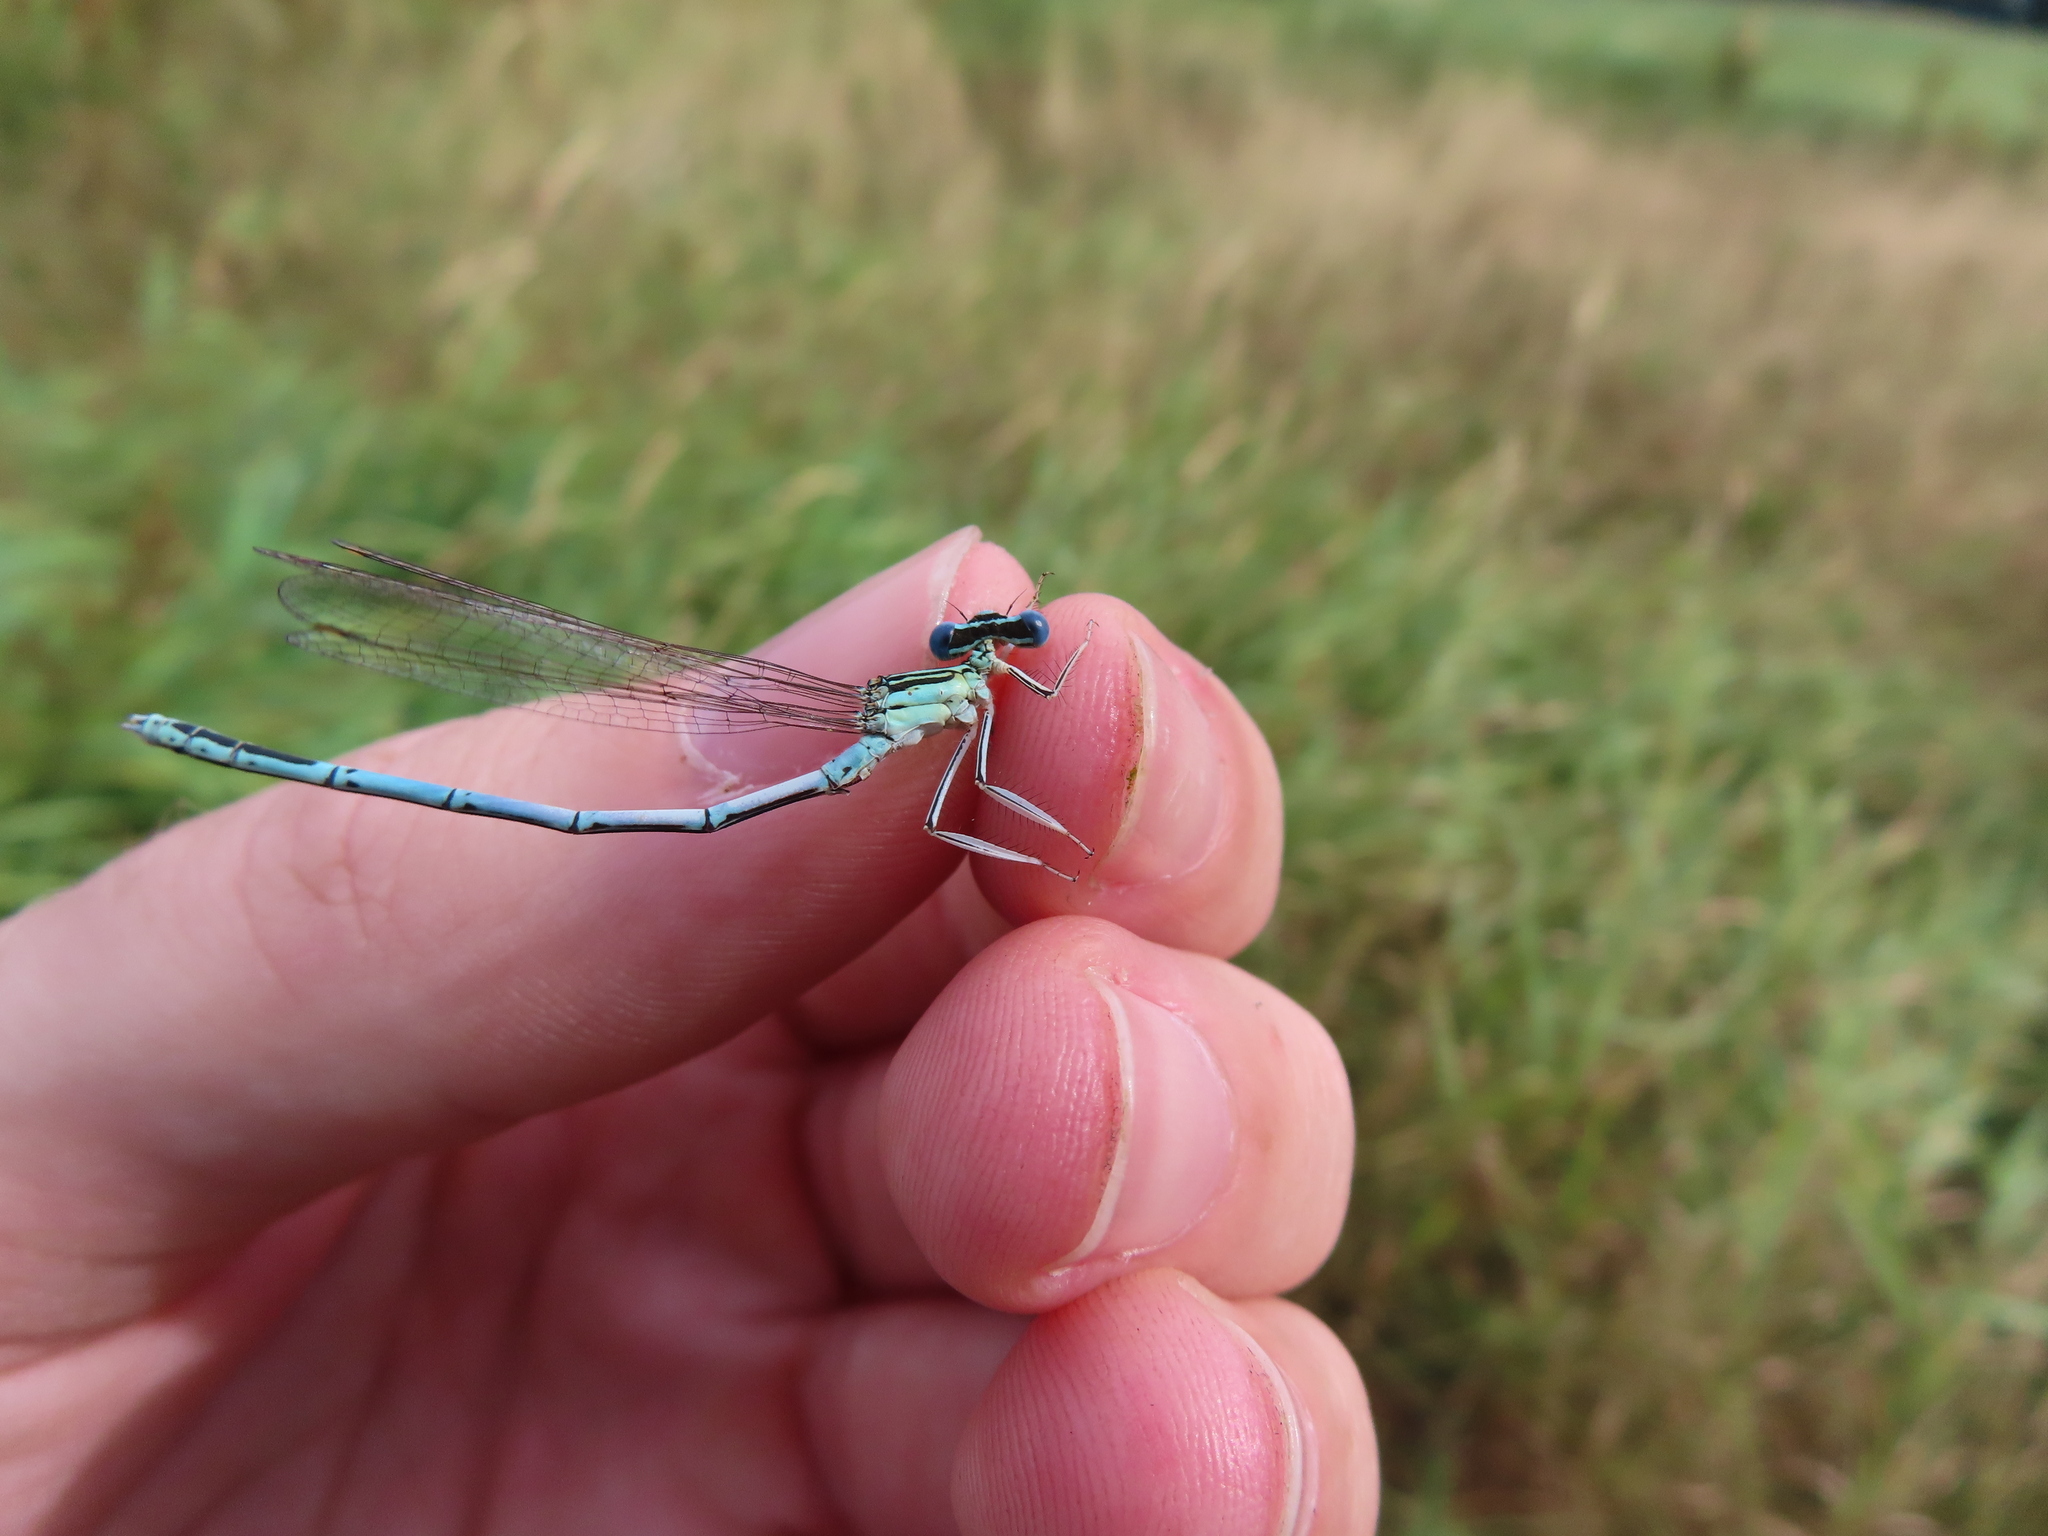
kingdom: Animalia
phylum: Arthropoda
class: Insecta
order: Odonata
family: Platycnemididae
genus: Platycnemis
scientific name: Platycnemis pennipes
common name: White-legged damselfly
